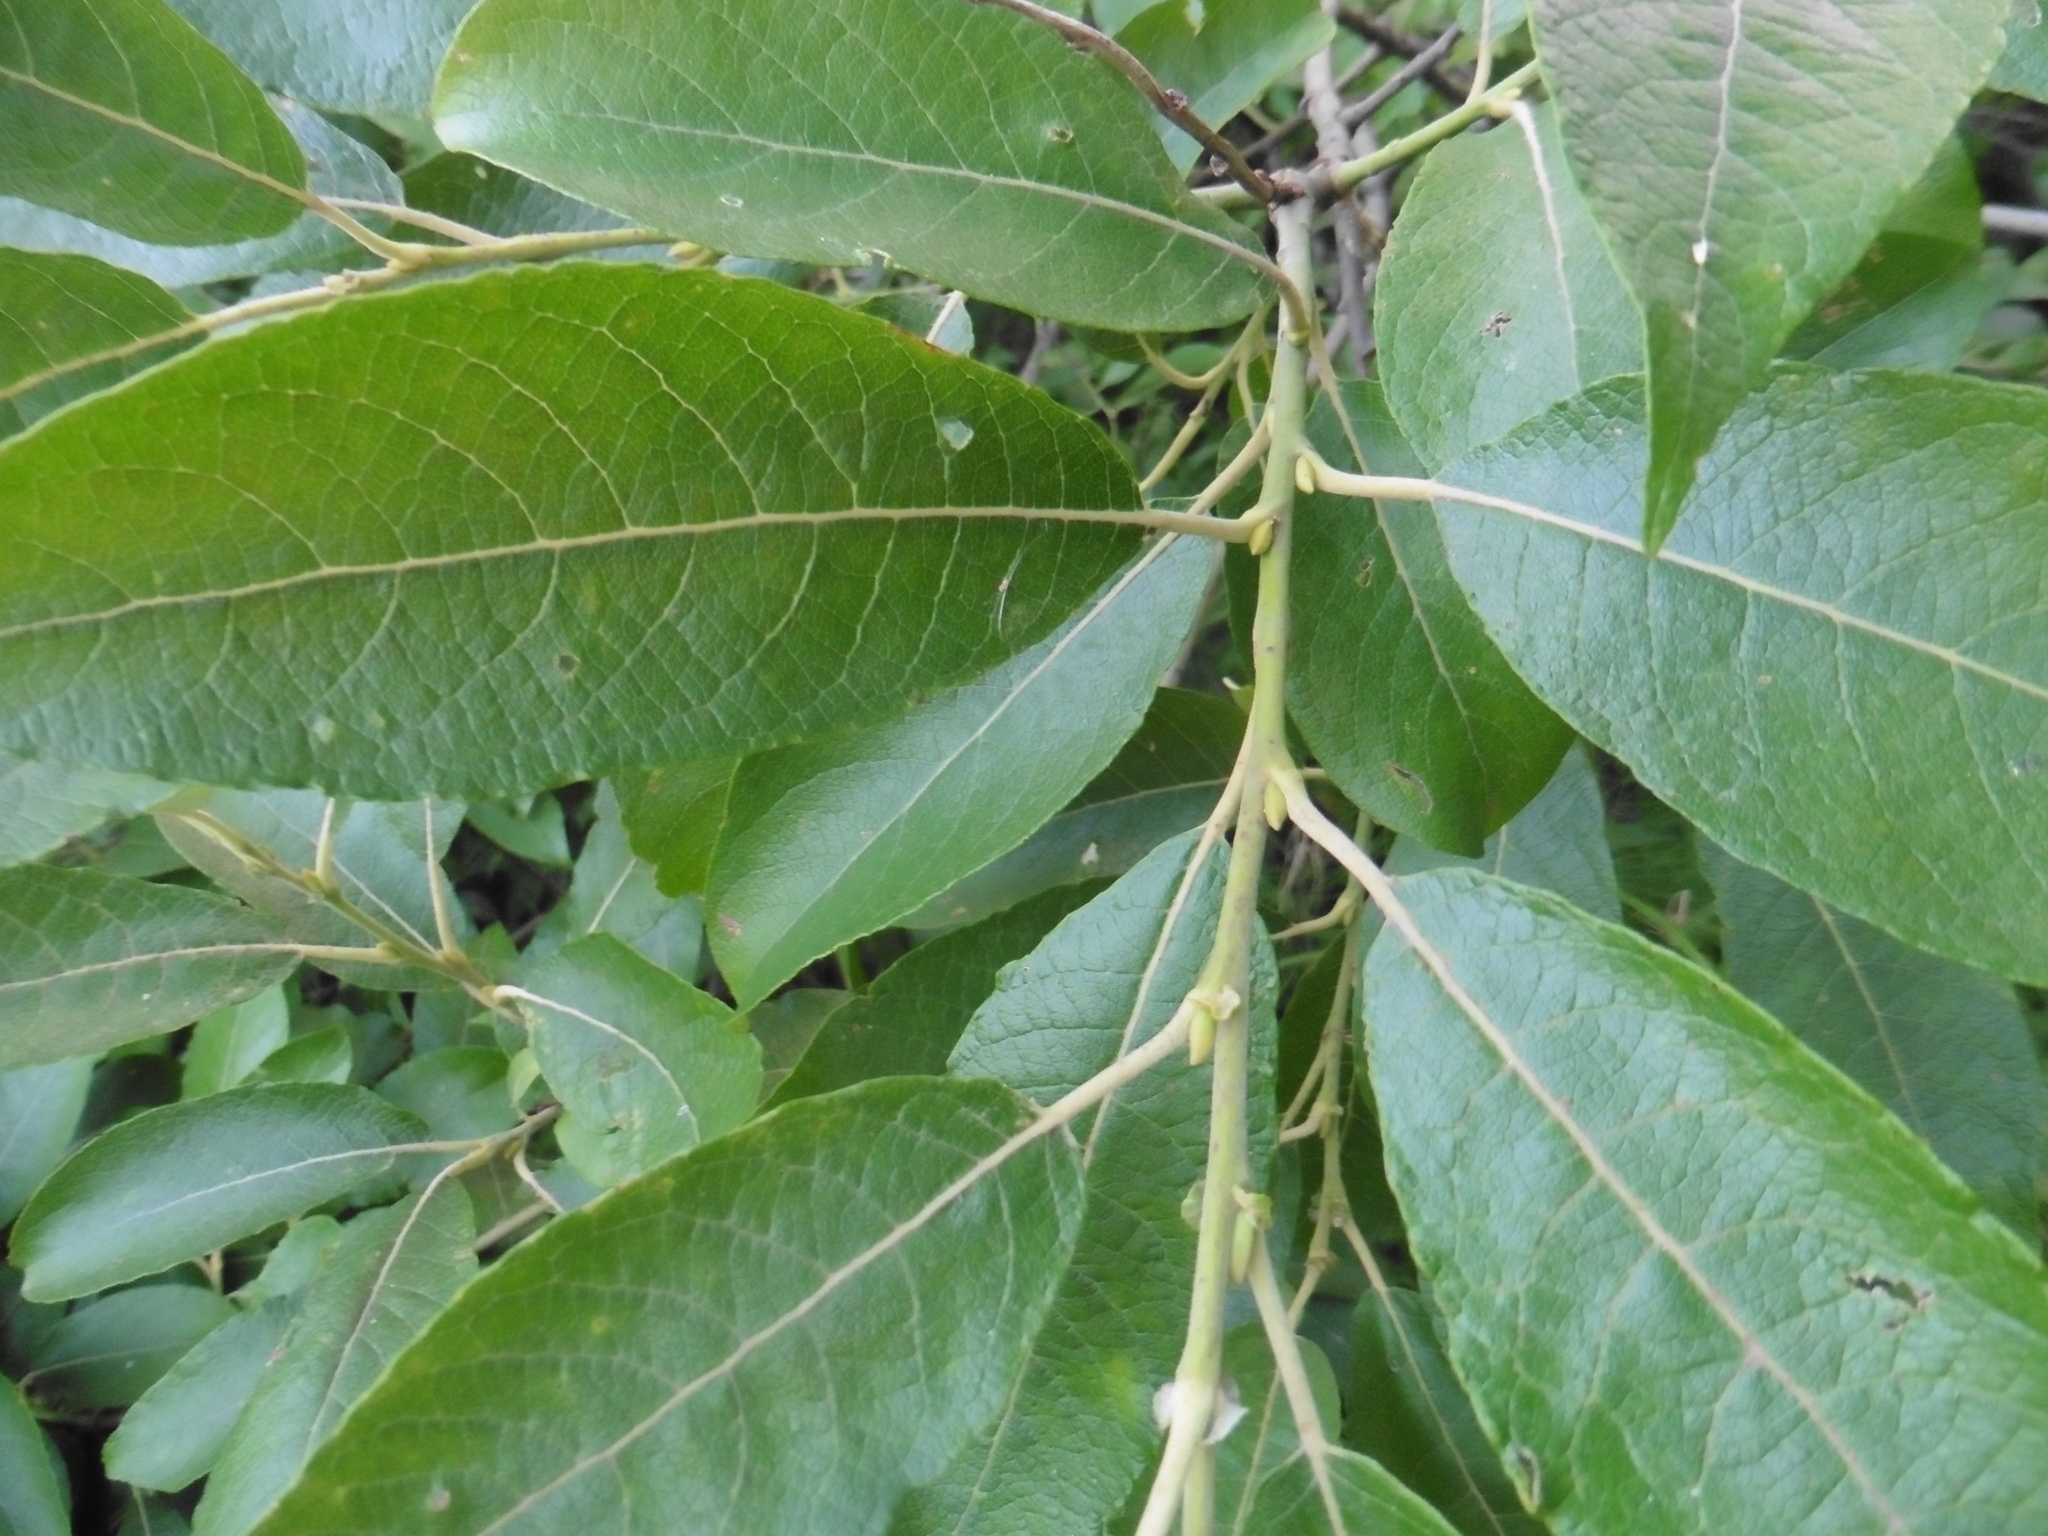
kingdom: Plantae
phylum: Tracheophyta
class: Magnoliopsida
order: Malpighiales
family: Salicaceae
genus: Salix
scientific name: Salix caprea
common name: Goat willow
